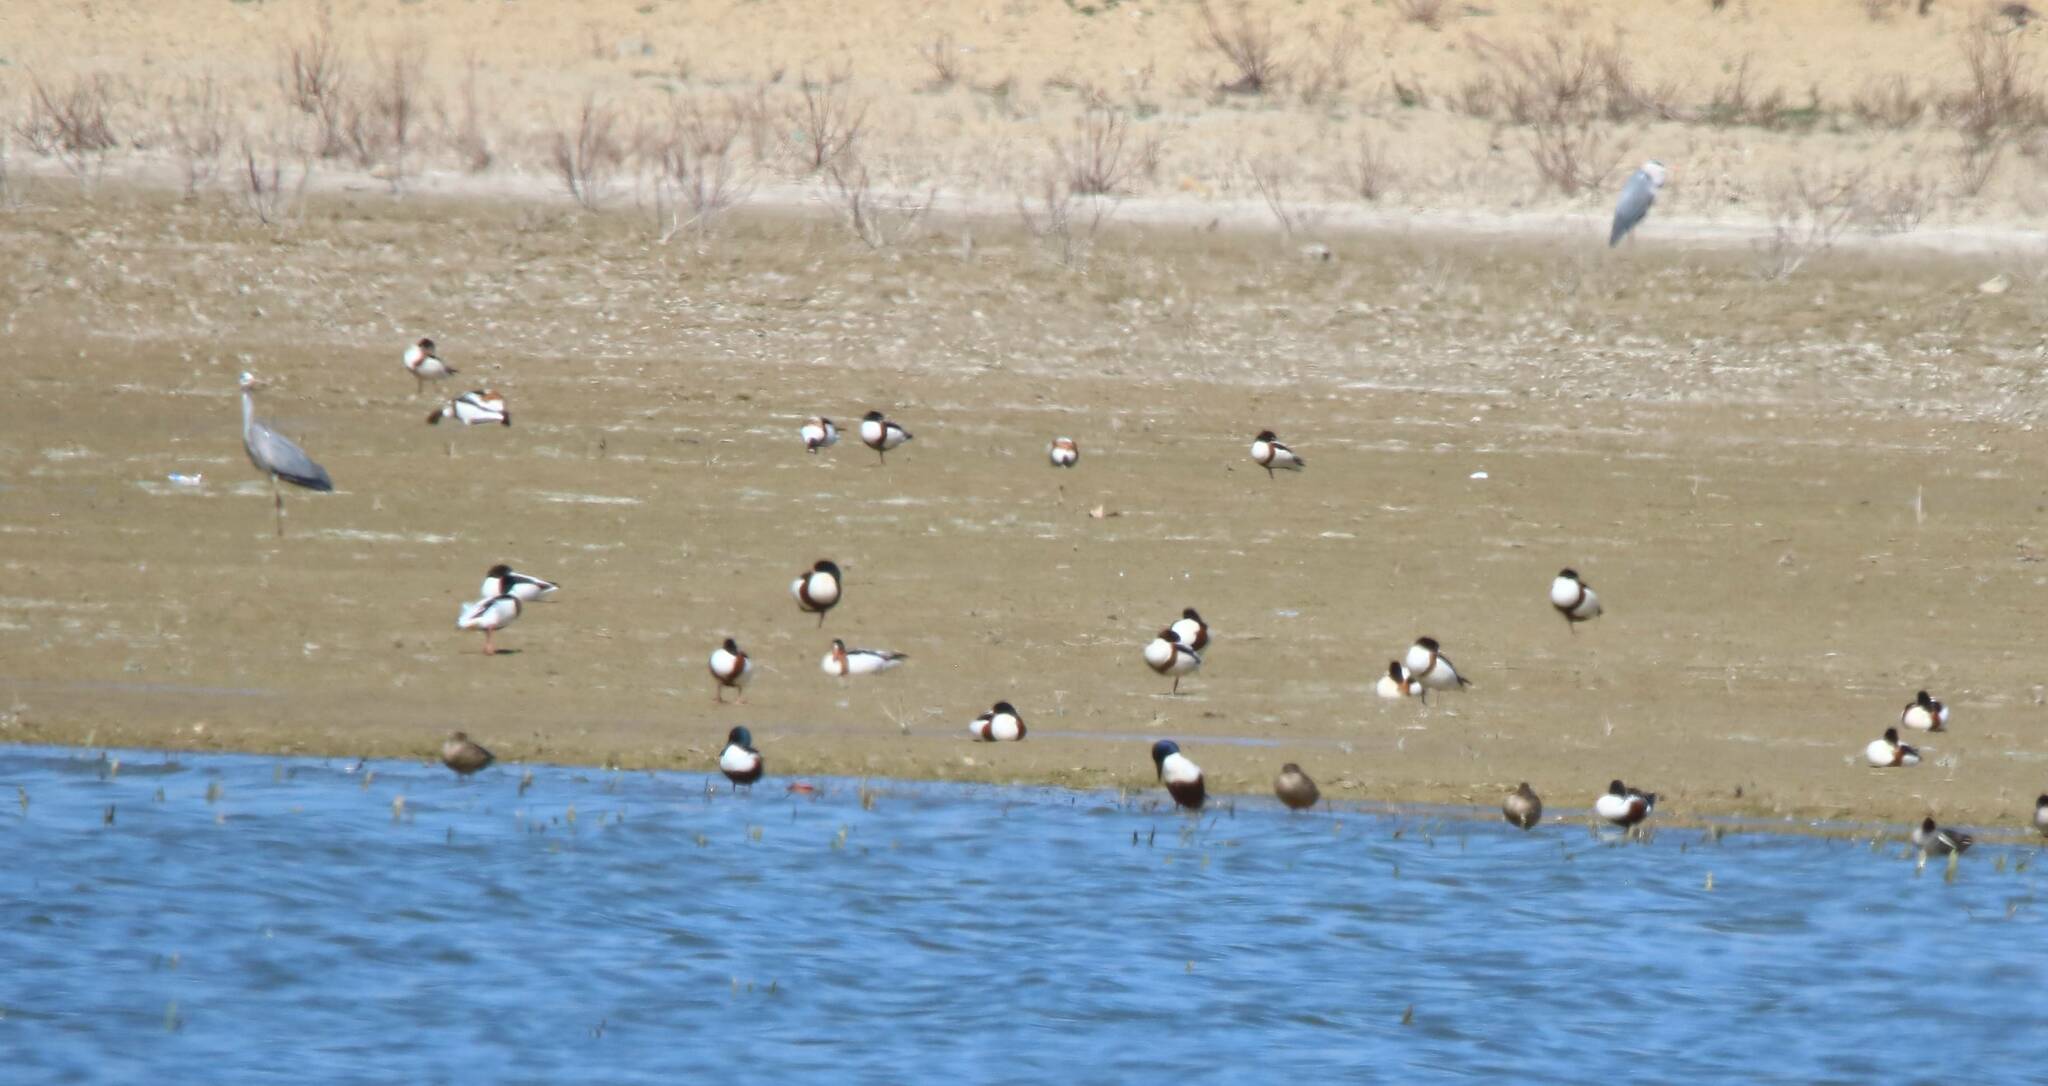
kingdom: Animalia
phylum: Chordata
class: Aves
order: Anseriformes
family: Anatidae
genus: Tadorna
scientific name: Tadorna tadorna
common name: Common shelduck
